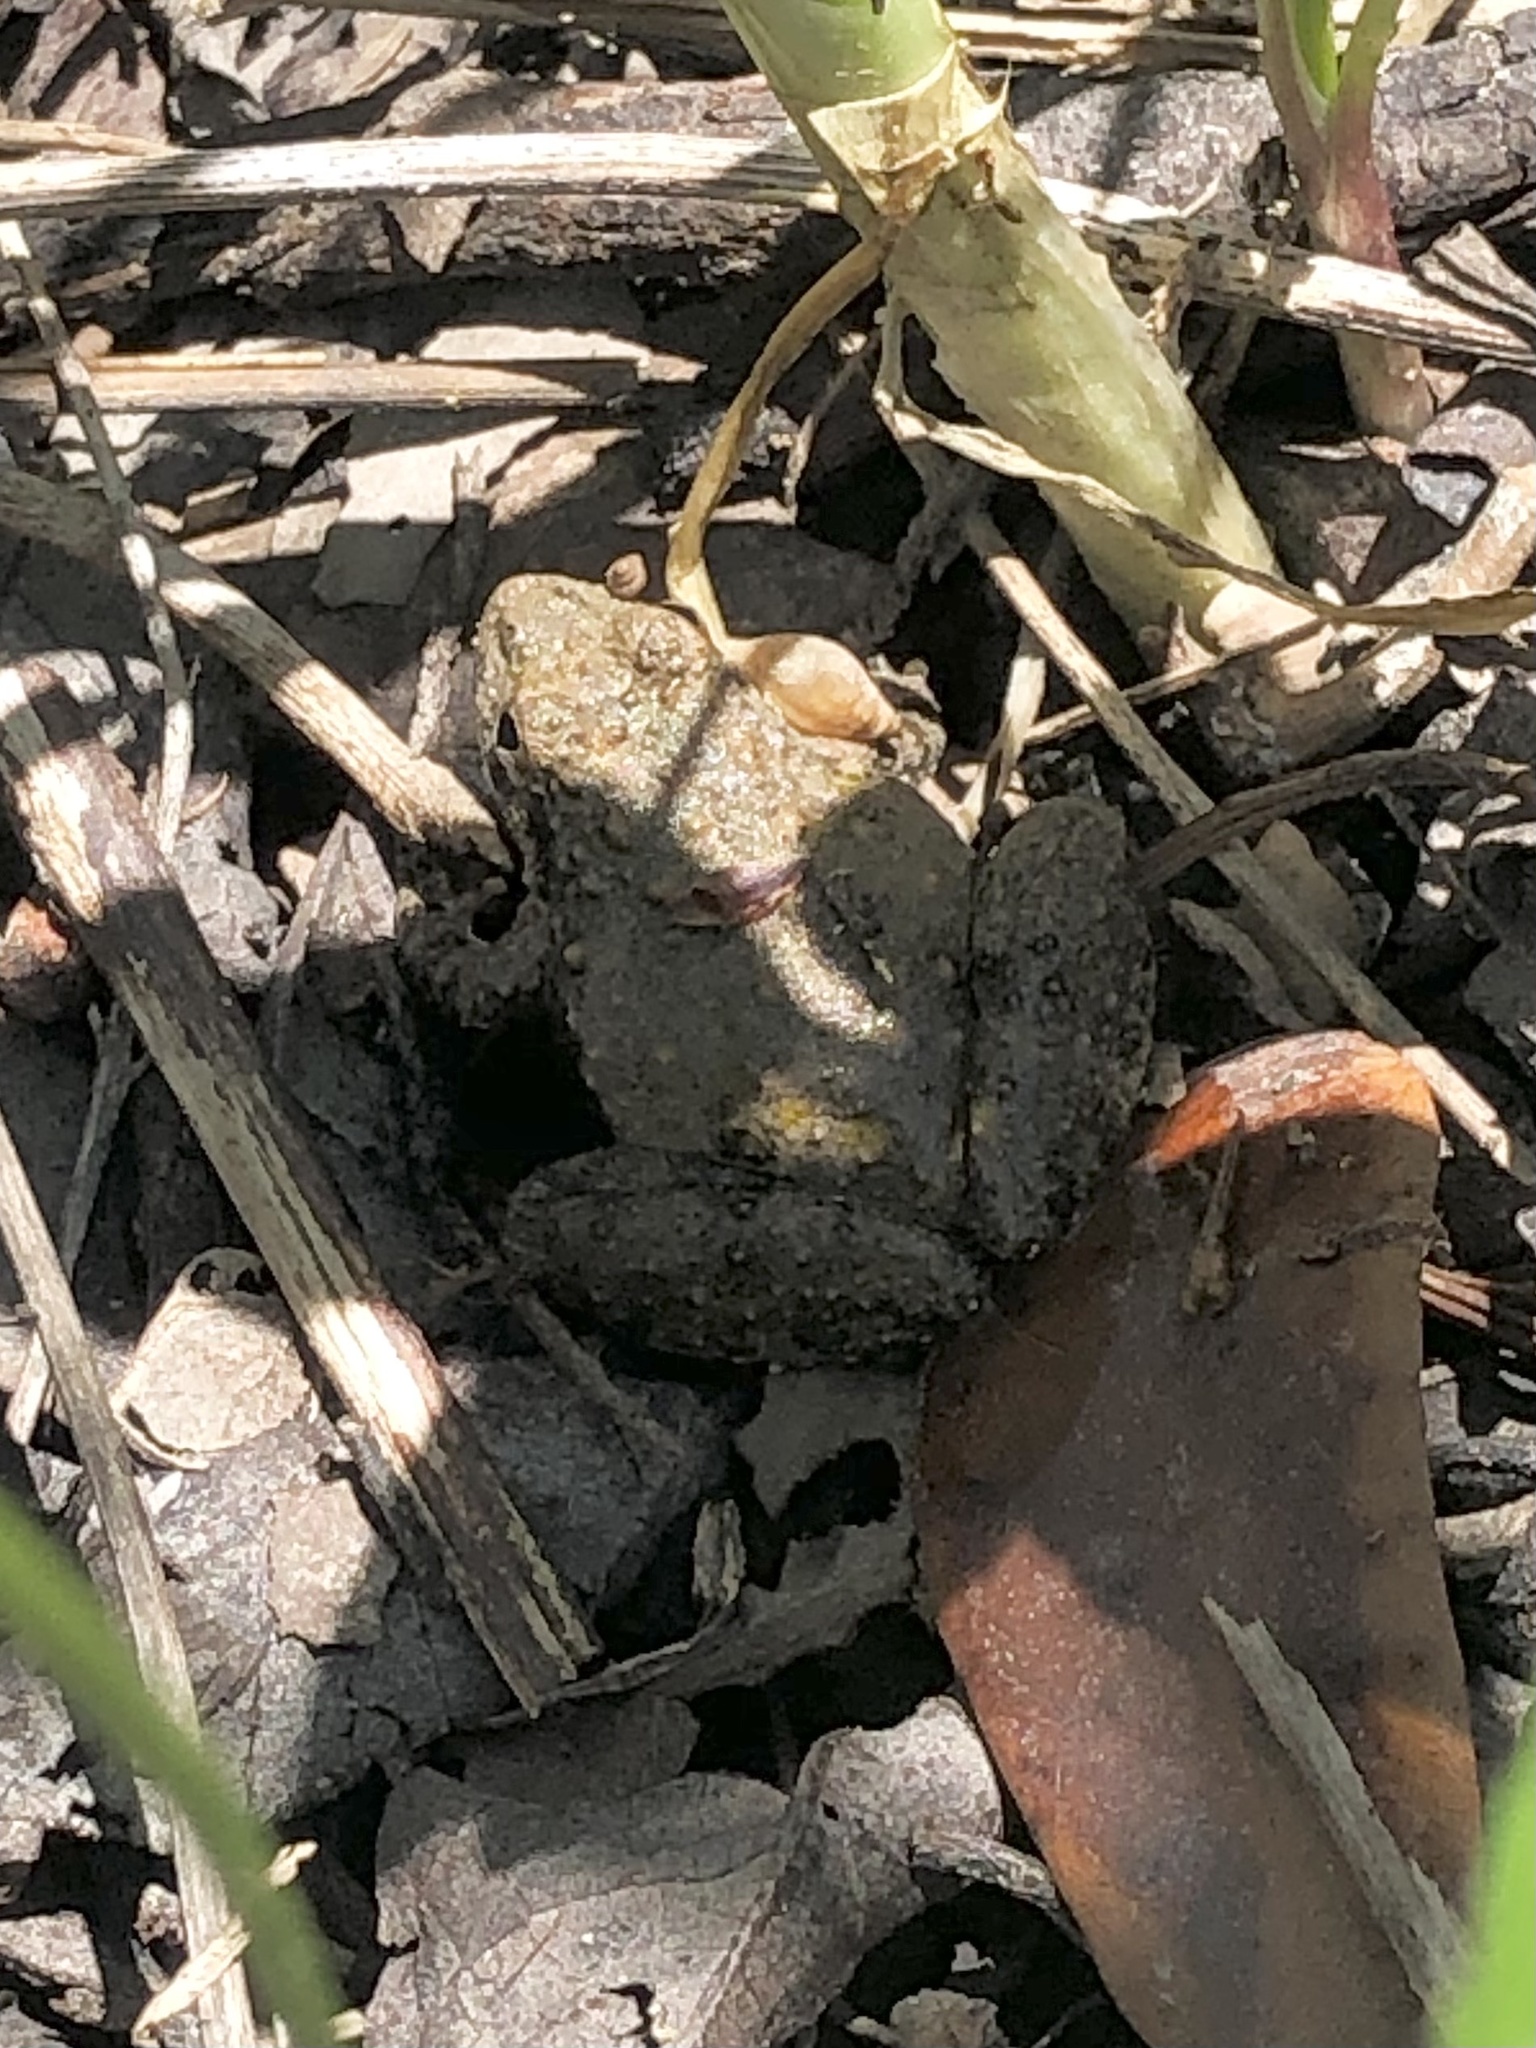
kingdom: Animalia
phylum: Chordata
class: Amphibia
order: Anura
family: Hylidae
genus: Acris
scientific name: Acris blanchardi
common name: Blanchard's cricket frog
